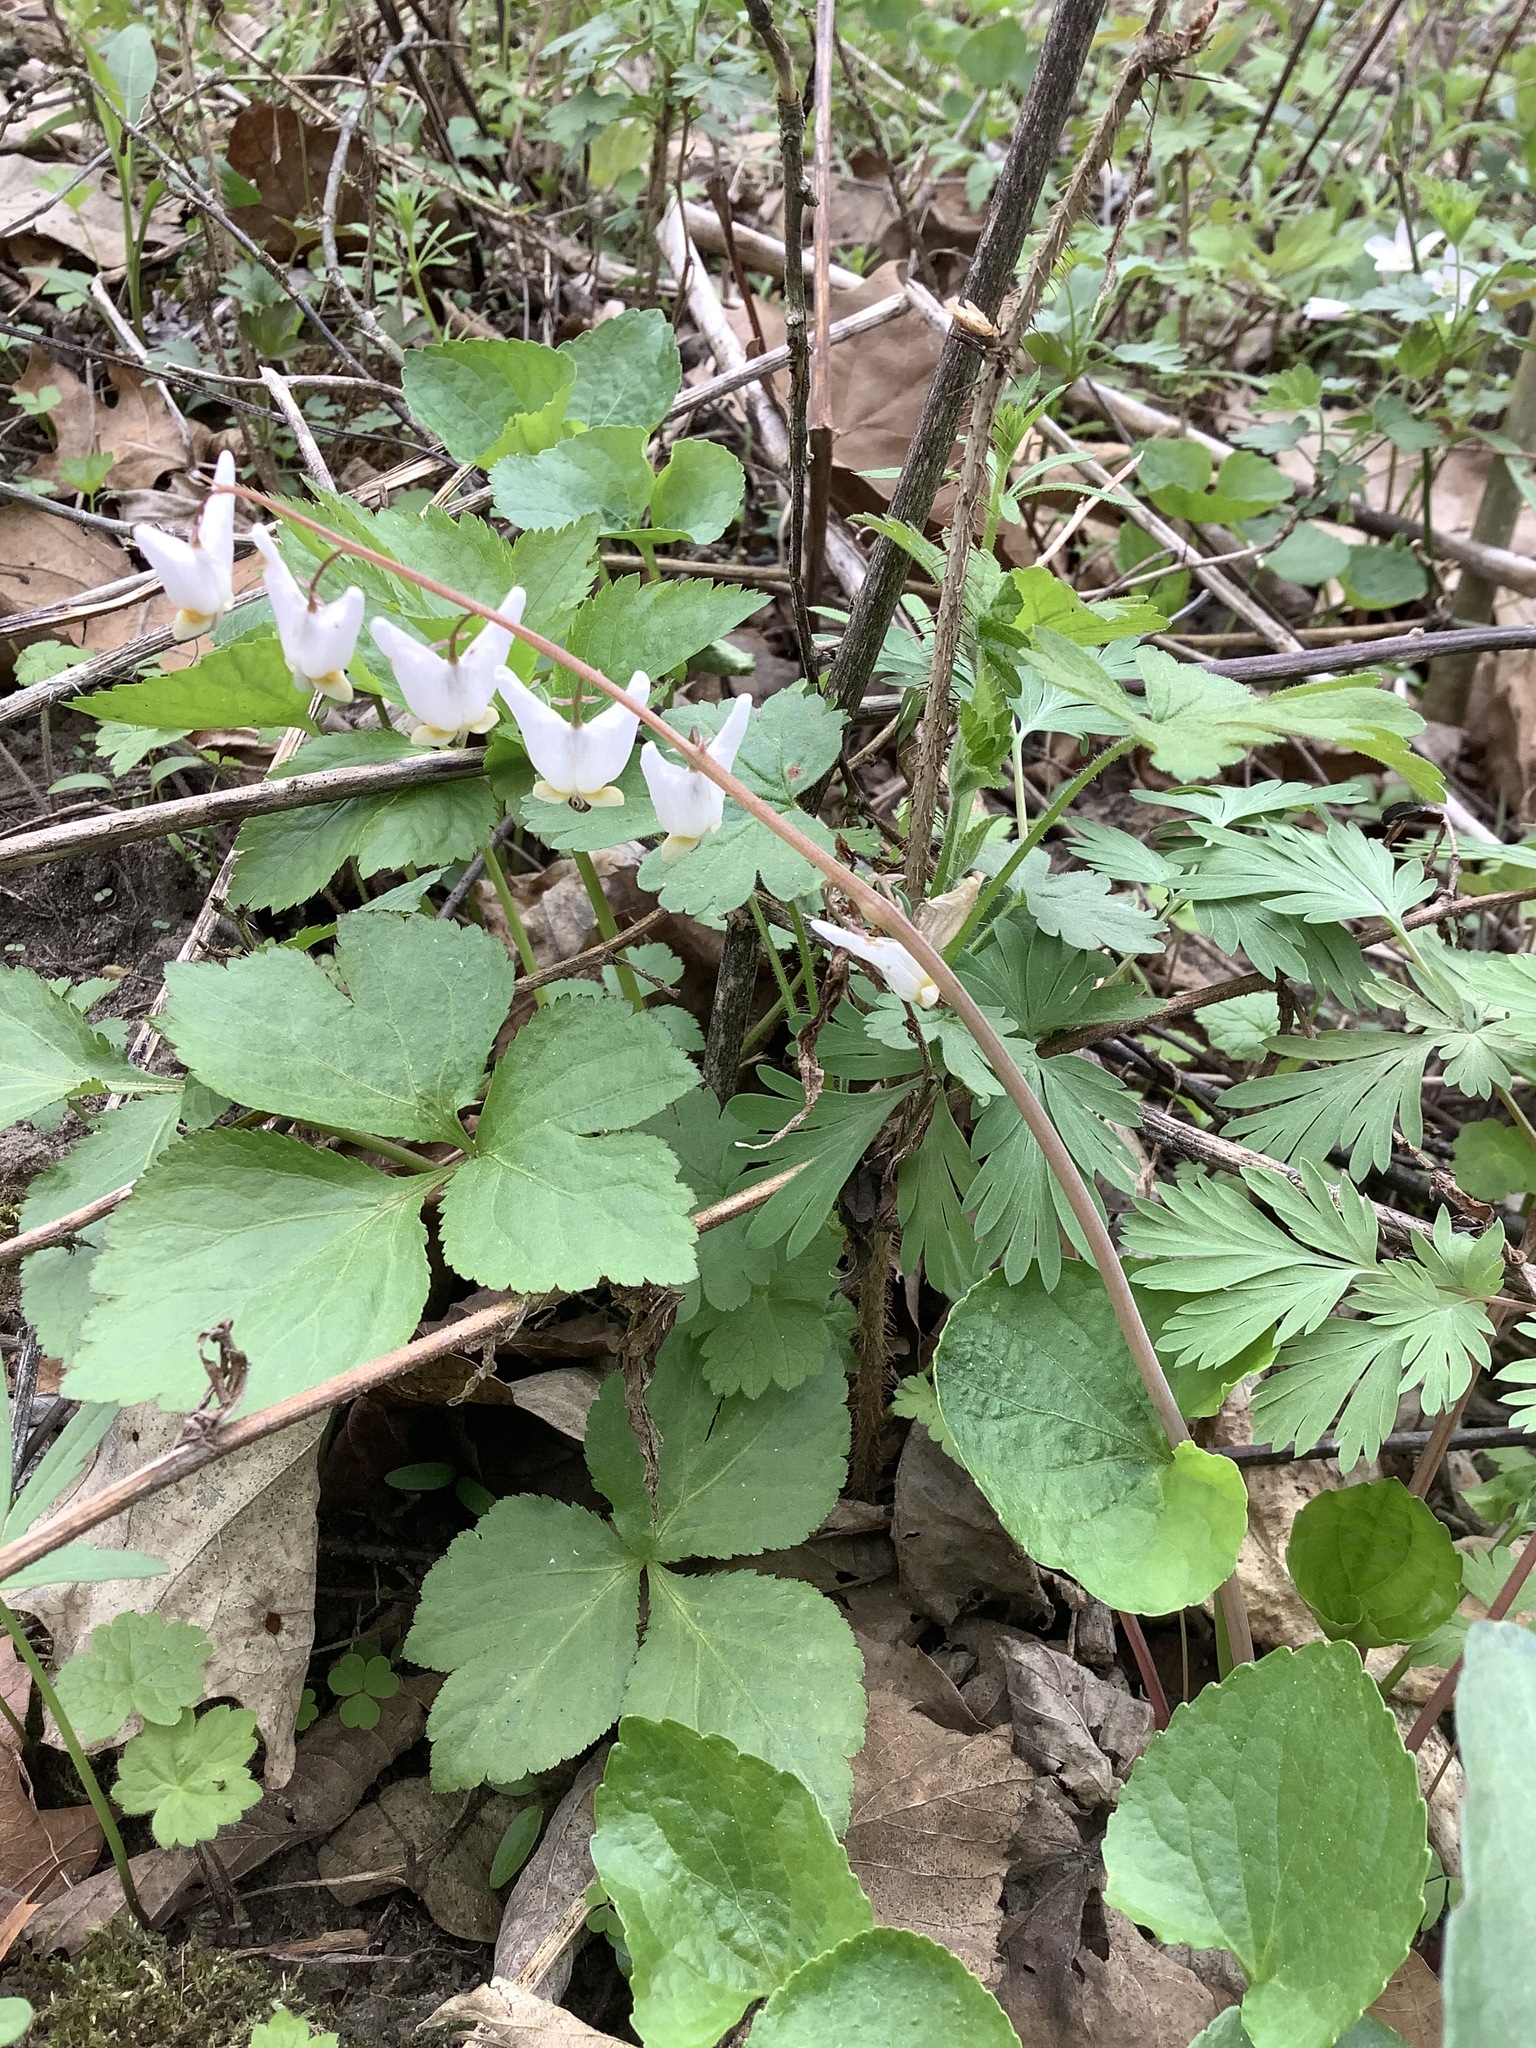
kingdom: Plantae
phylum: Tracheophyta
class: Magnoliopsida
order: Ranunculales
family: Papaveraceae
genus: Dicentra
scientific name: Dicentra cucullaria
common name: Dutchman's breeches
